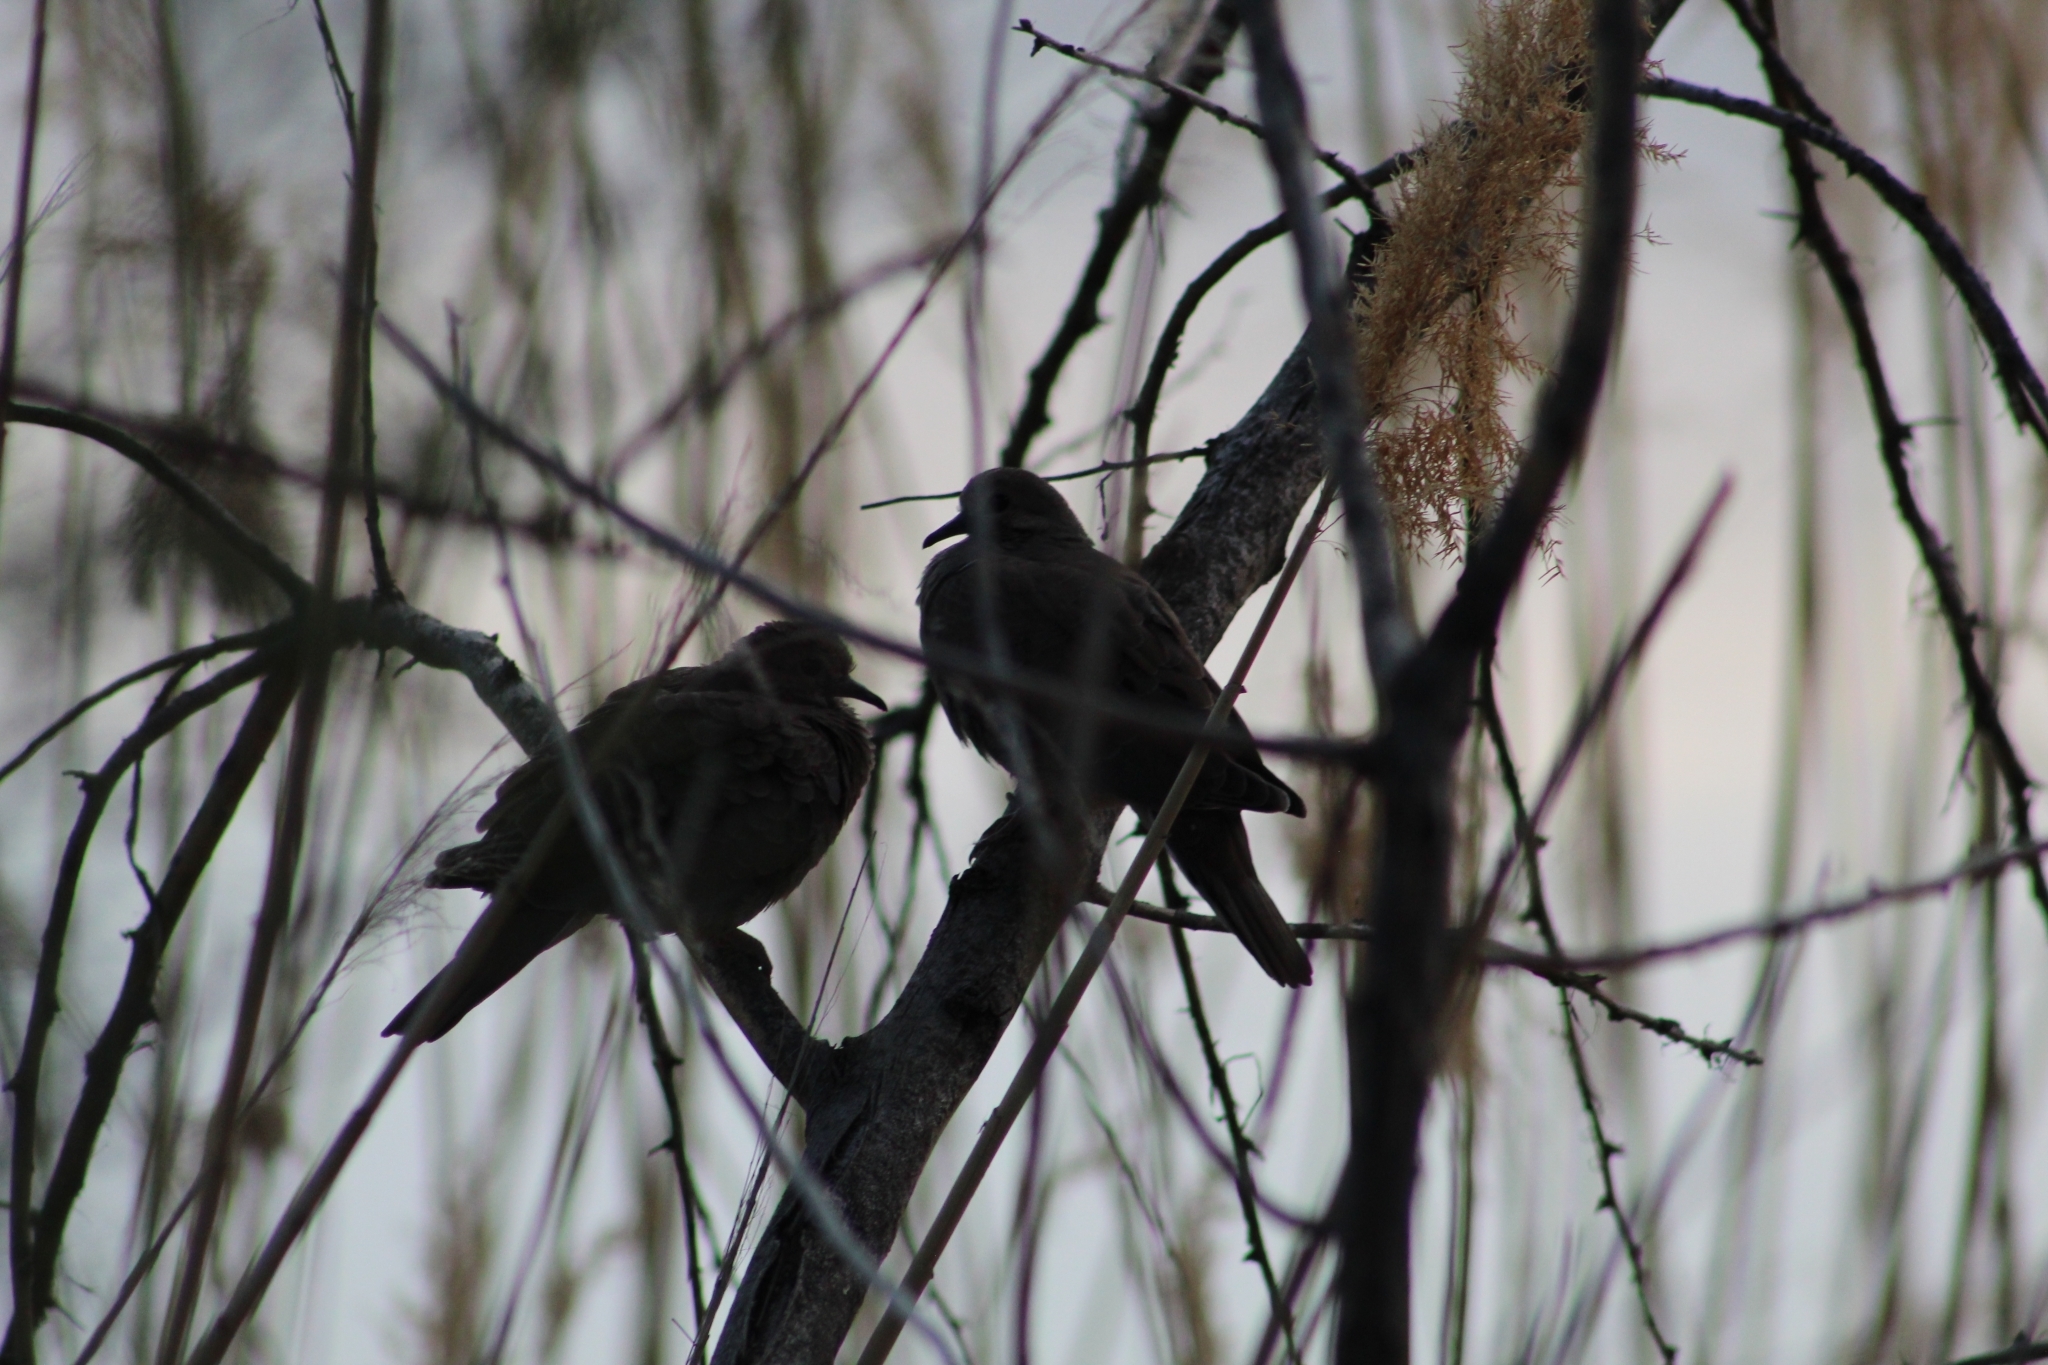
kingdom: Animalia
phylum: Chordata
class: Aves
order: Columbiformes
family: Columbidae
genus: Zenaida
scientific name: Zenaida macroura
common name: Mourning dove
